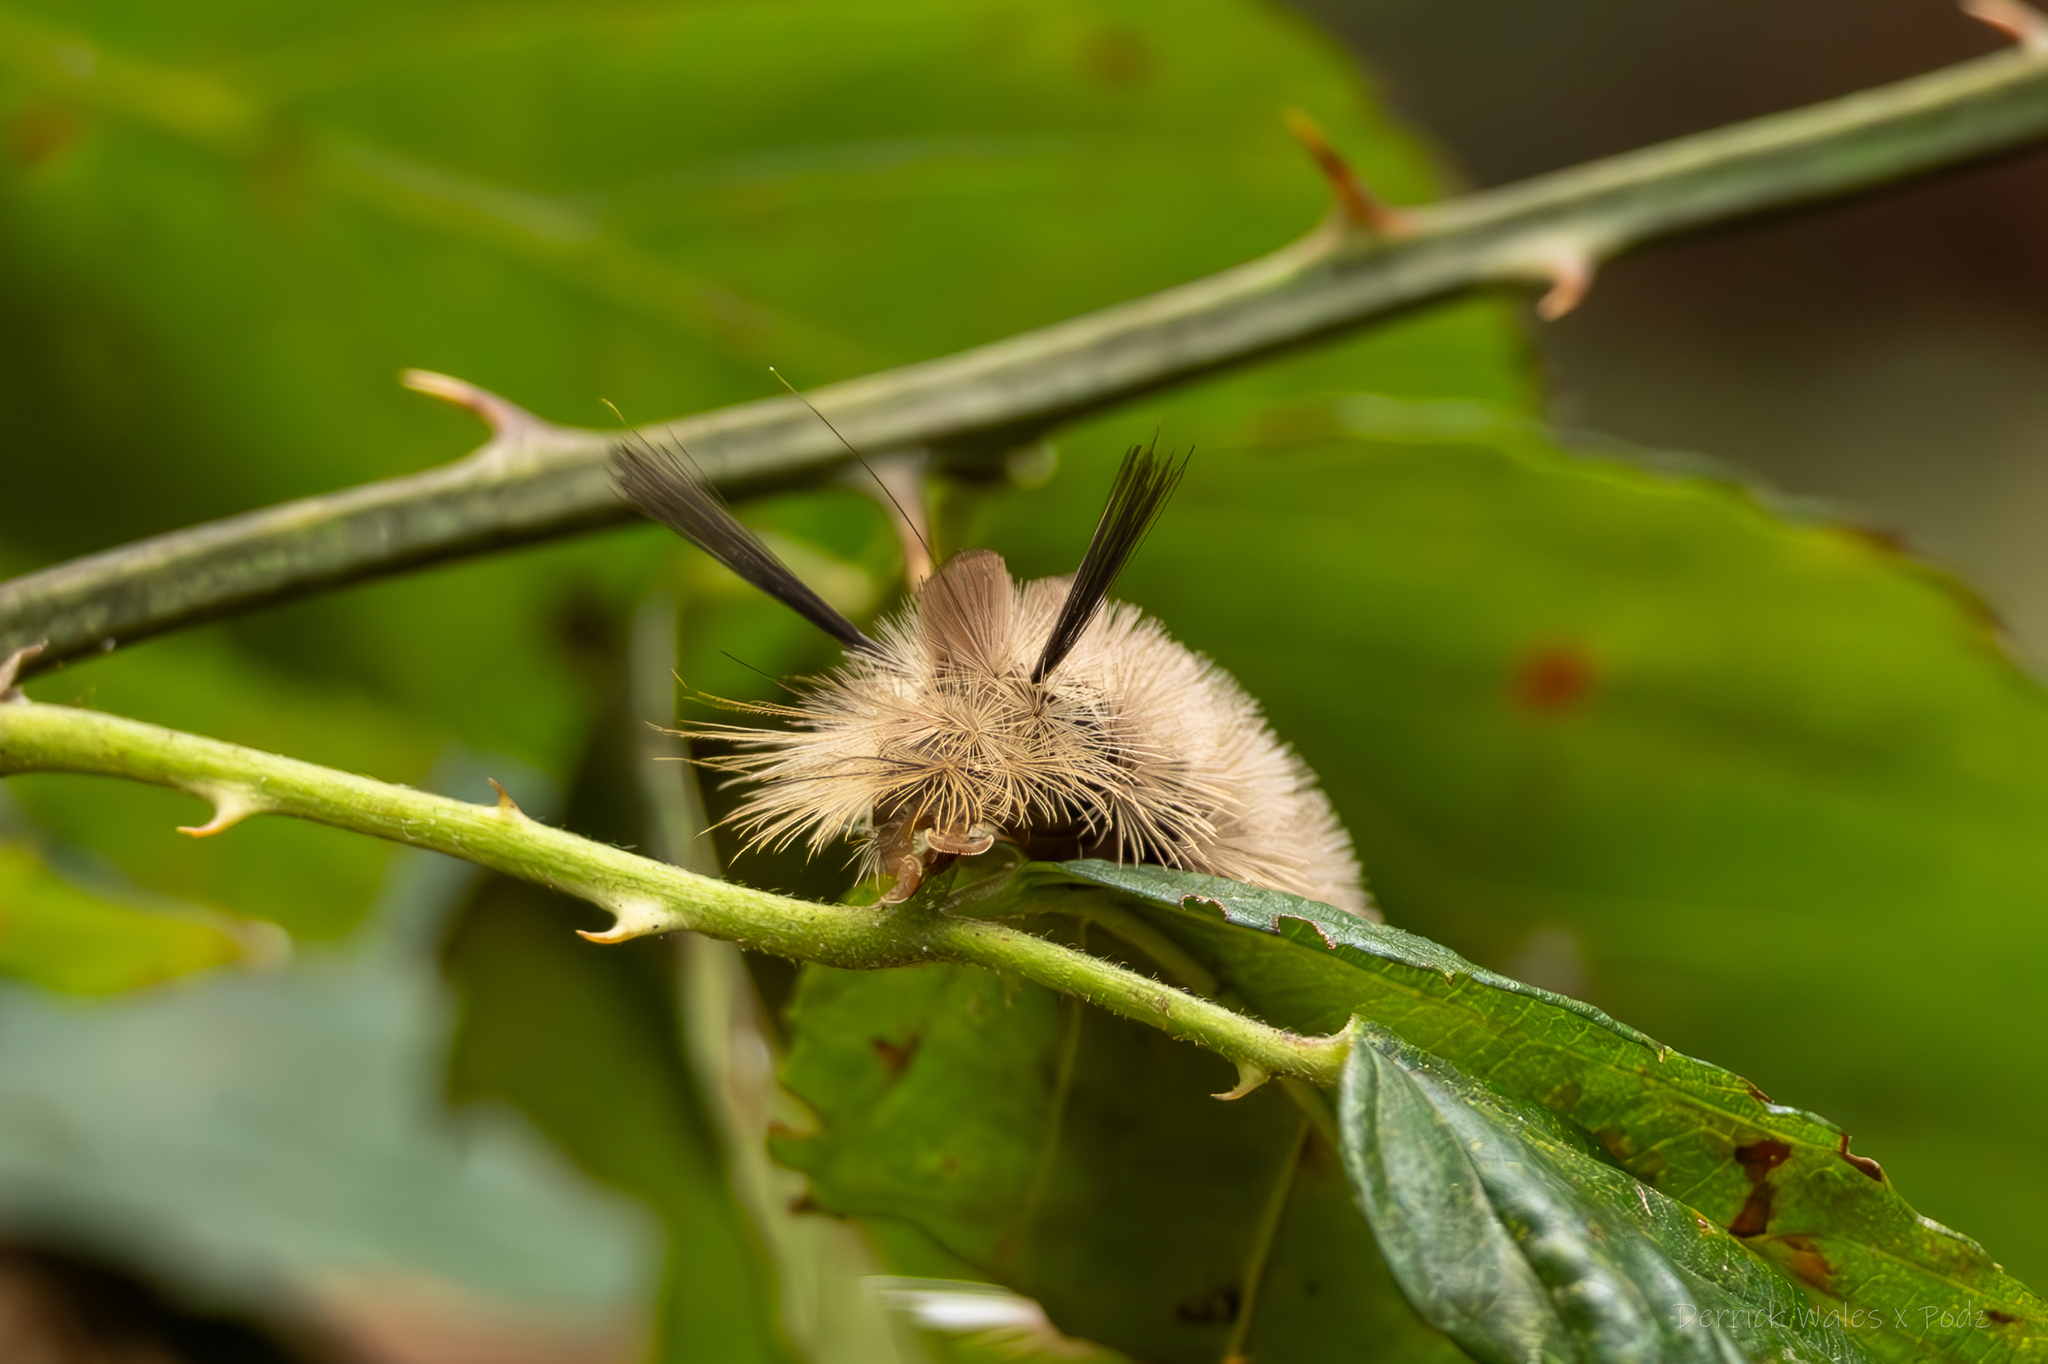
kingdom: Animalia
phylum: Arthropoda
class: Insecta
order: Lepidoptera
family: Erebidae
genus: Halysidota
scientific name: Halysidota tessellaris
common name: Banded tussock moth
